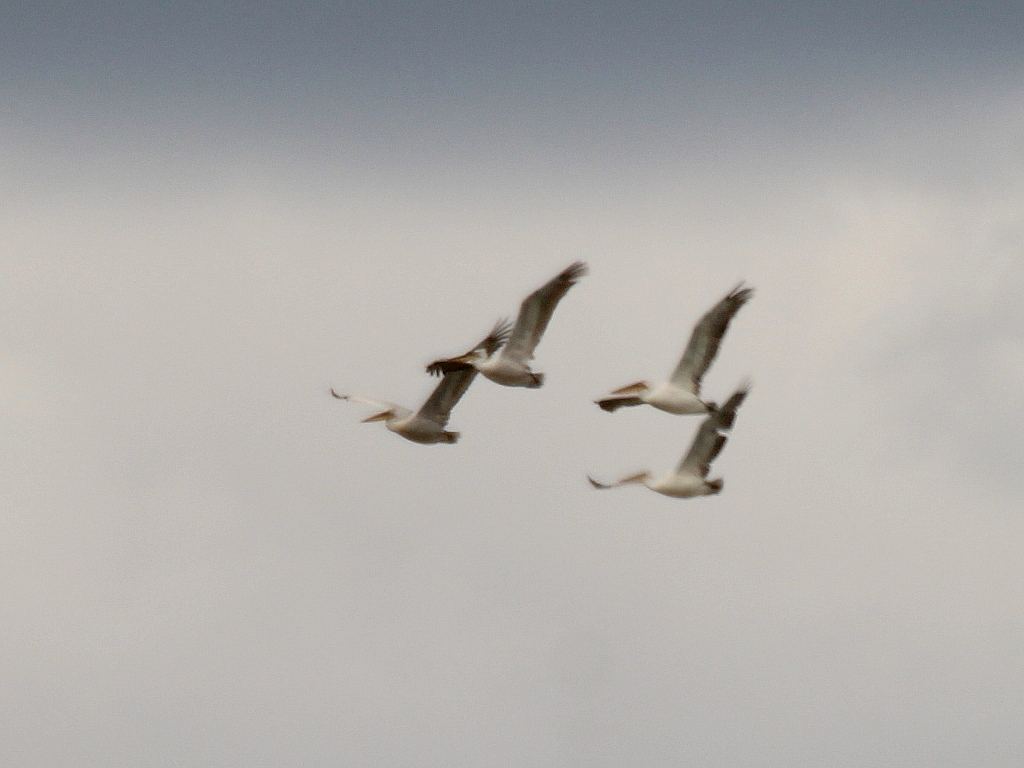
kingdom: Animalia
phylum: Chordata
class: Aves
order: Pelecaniformes
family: Pelecanidae
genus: Pelecanus
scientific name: Pelecanus crispus
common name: Dalmatian pelican
